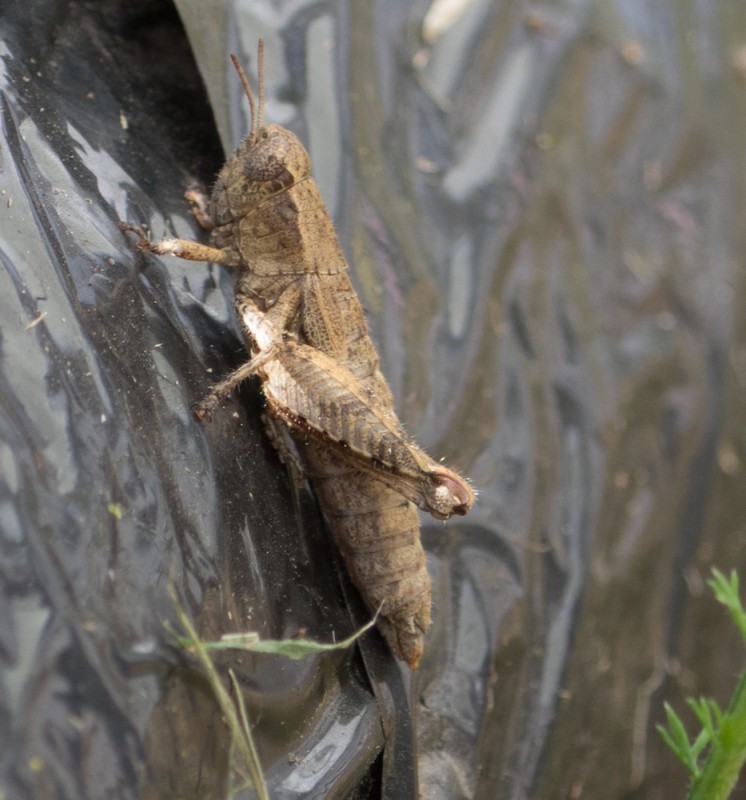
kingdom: Animalia
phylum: Arthropoda
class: Insecta
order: Orthoptera
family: Acrididae
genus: Pezotettix
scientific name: Pezotettix giornae
